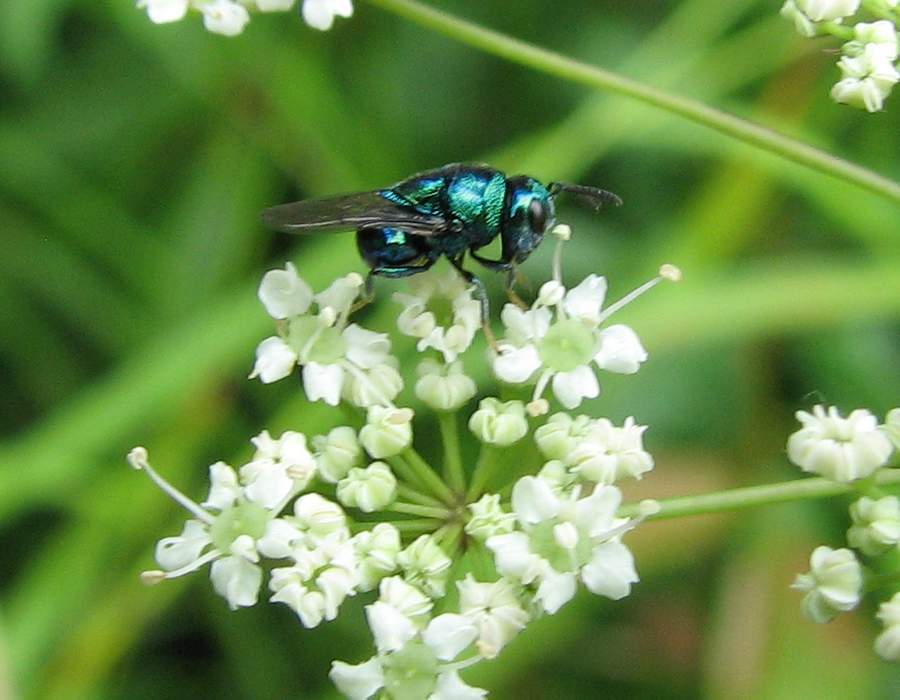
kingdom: Animalia
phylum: Arthropoda
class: Insecta
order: Hymenoptera
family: Perilampidae
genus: Euperilampus
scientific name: Euperilampus triangularis
